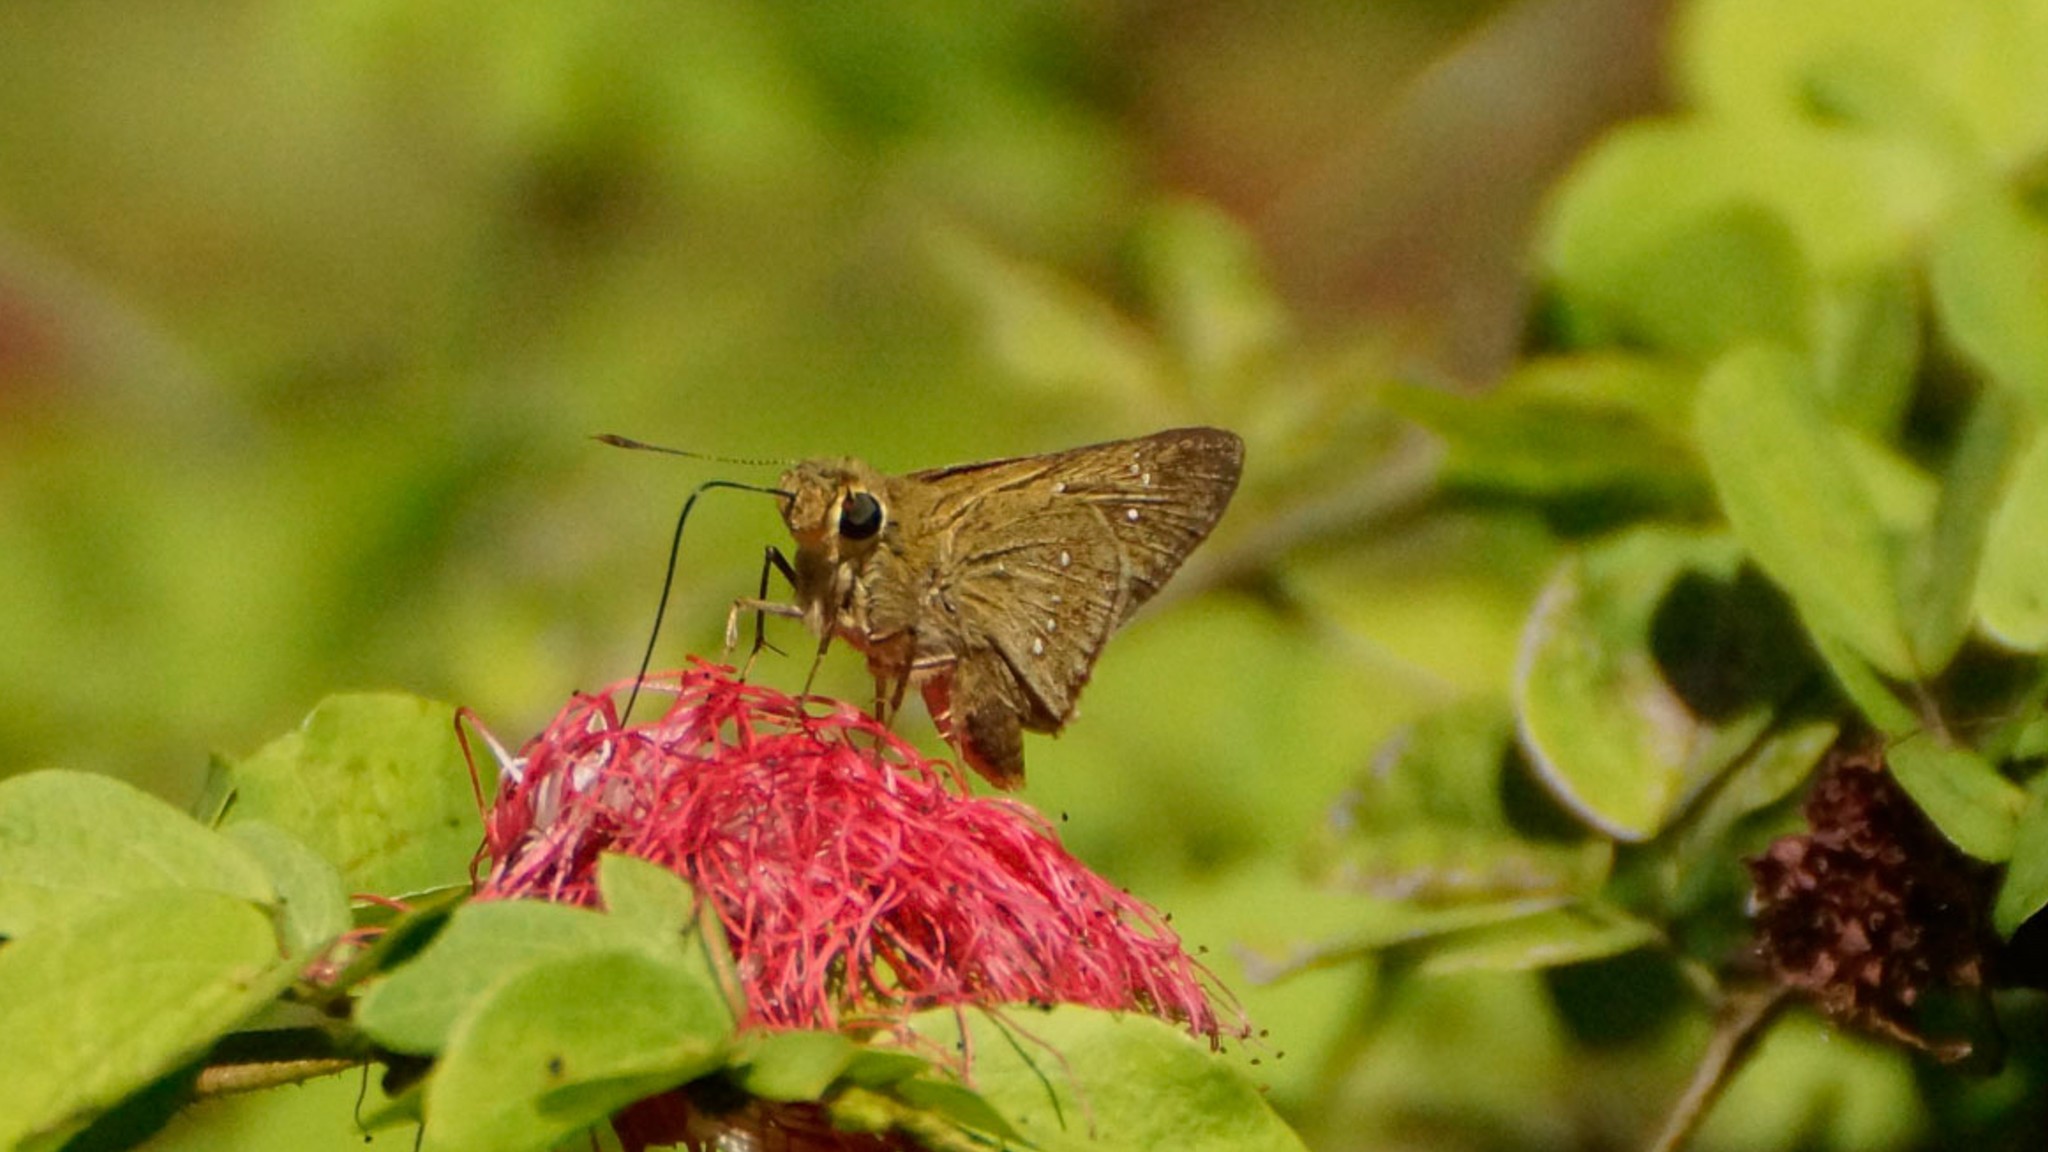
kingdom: Animalia
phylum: Arthropoda
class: Insecta
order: Lepidoptera
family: Hesperiidae
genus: Pelopidas
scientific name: Pelopidas lyelli
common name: Lyell's swift
